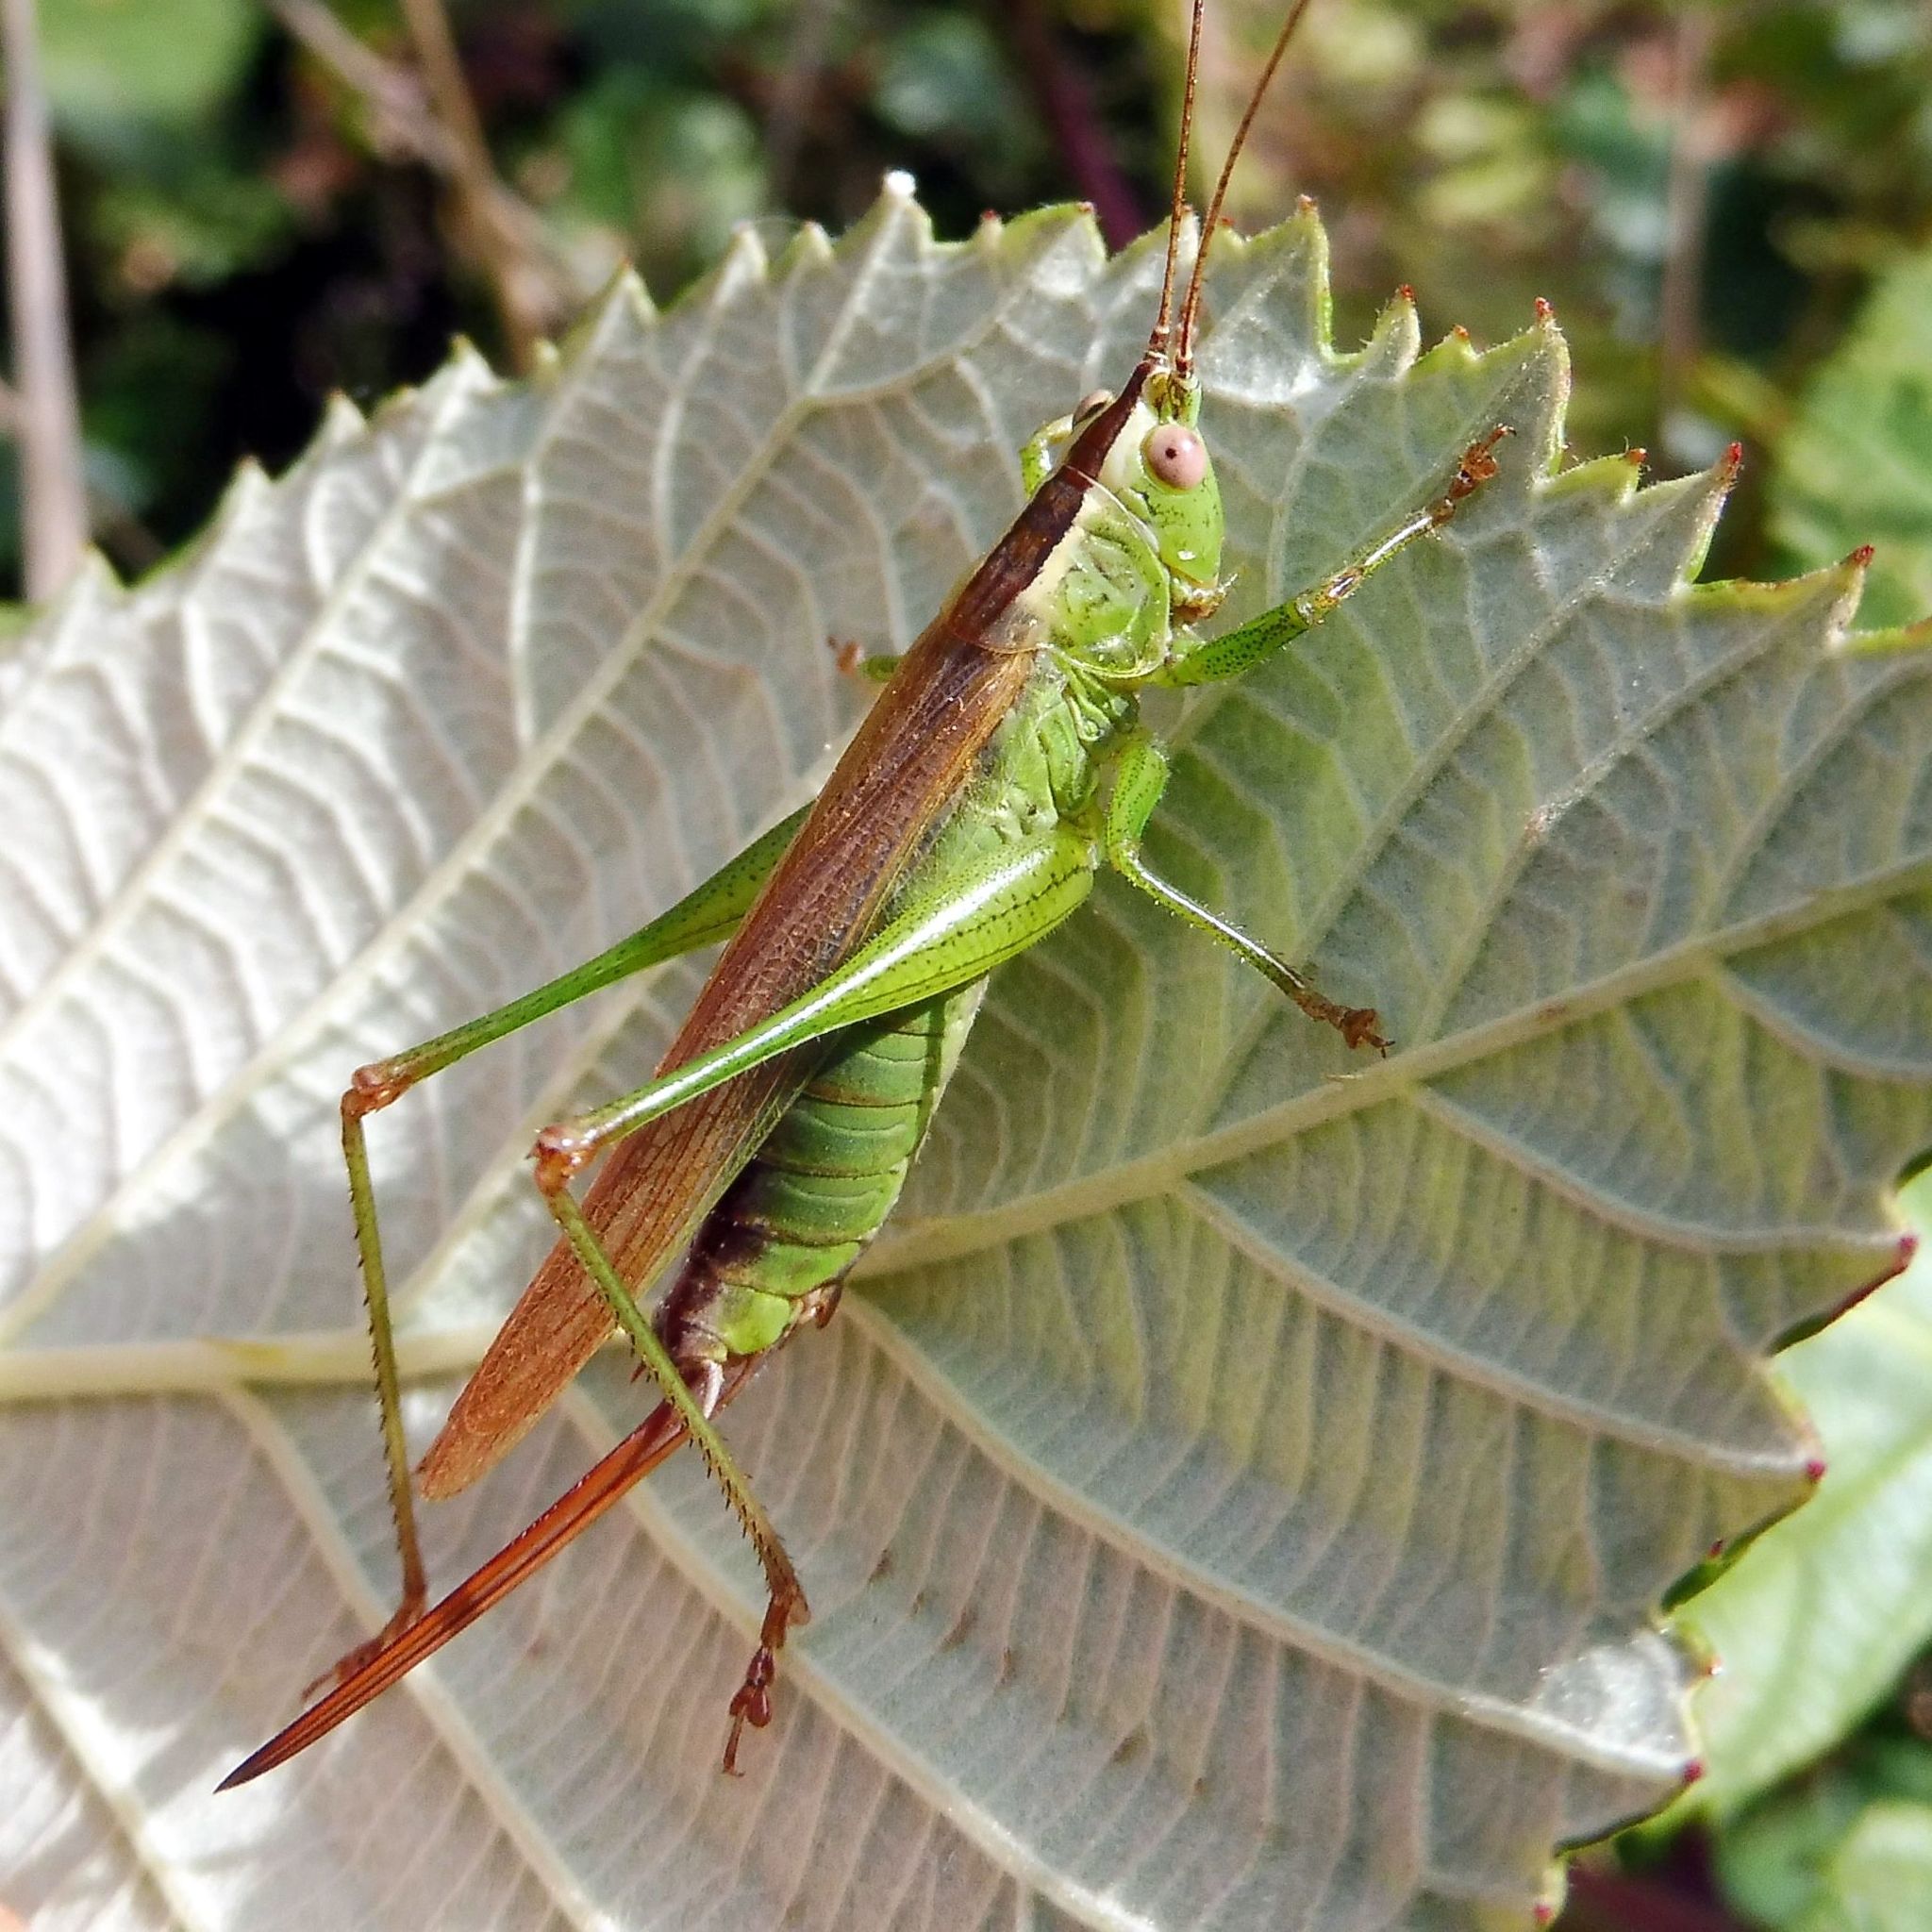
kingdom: Animalia
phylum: Arthropoda
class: Insecta
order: Orthoptera
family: Tettigoniidae
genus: Conocephalus
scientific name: Conocephalus fuscus
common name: Long-winged conehead
